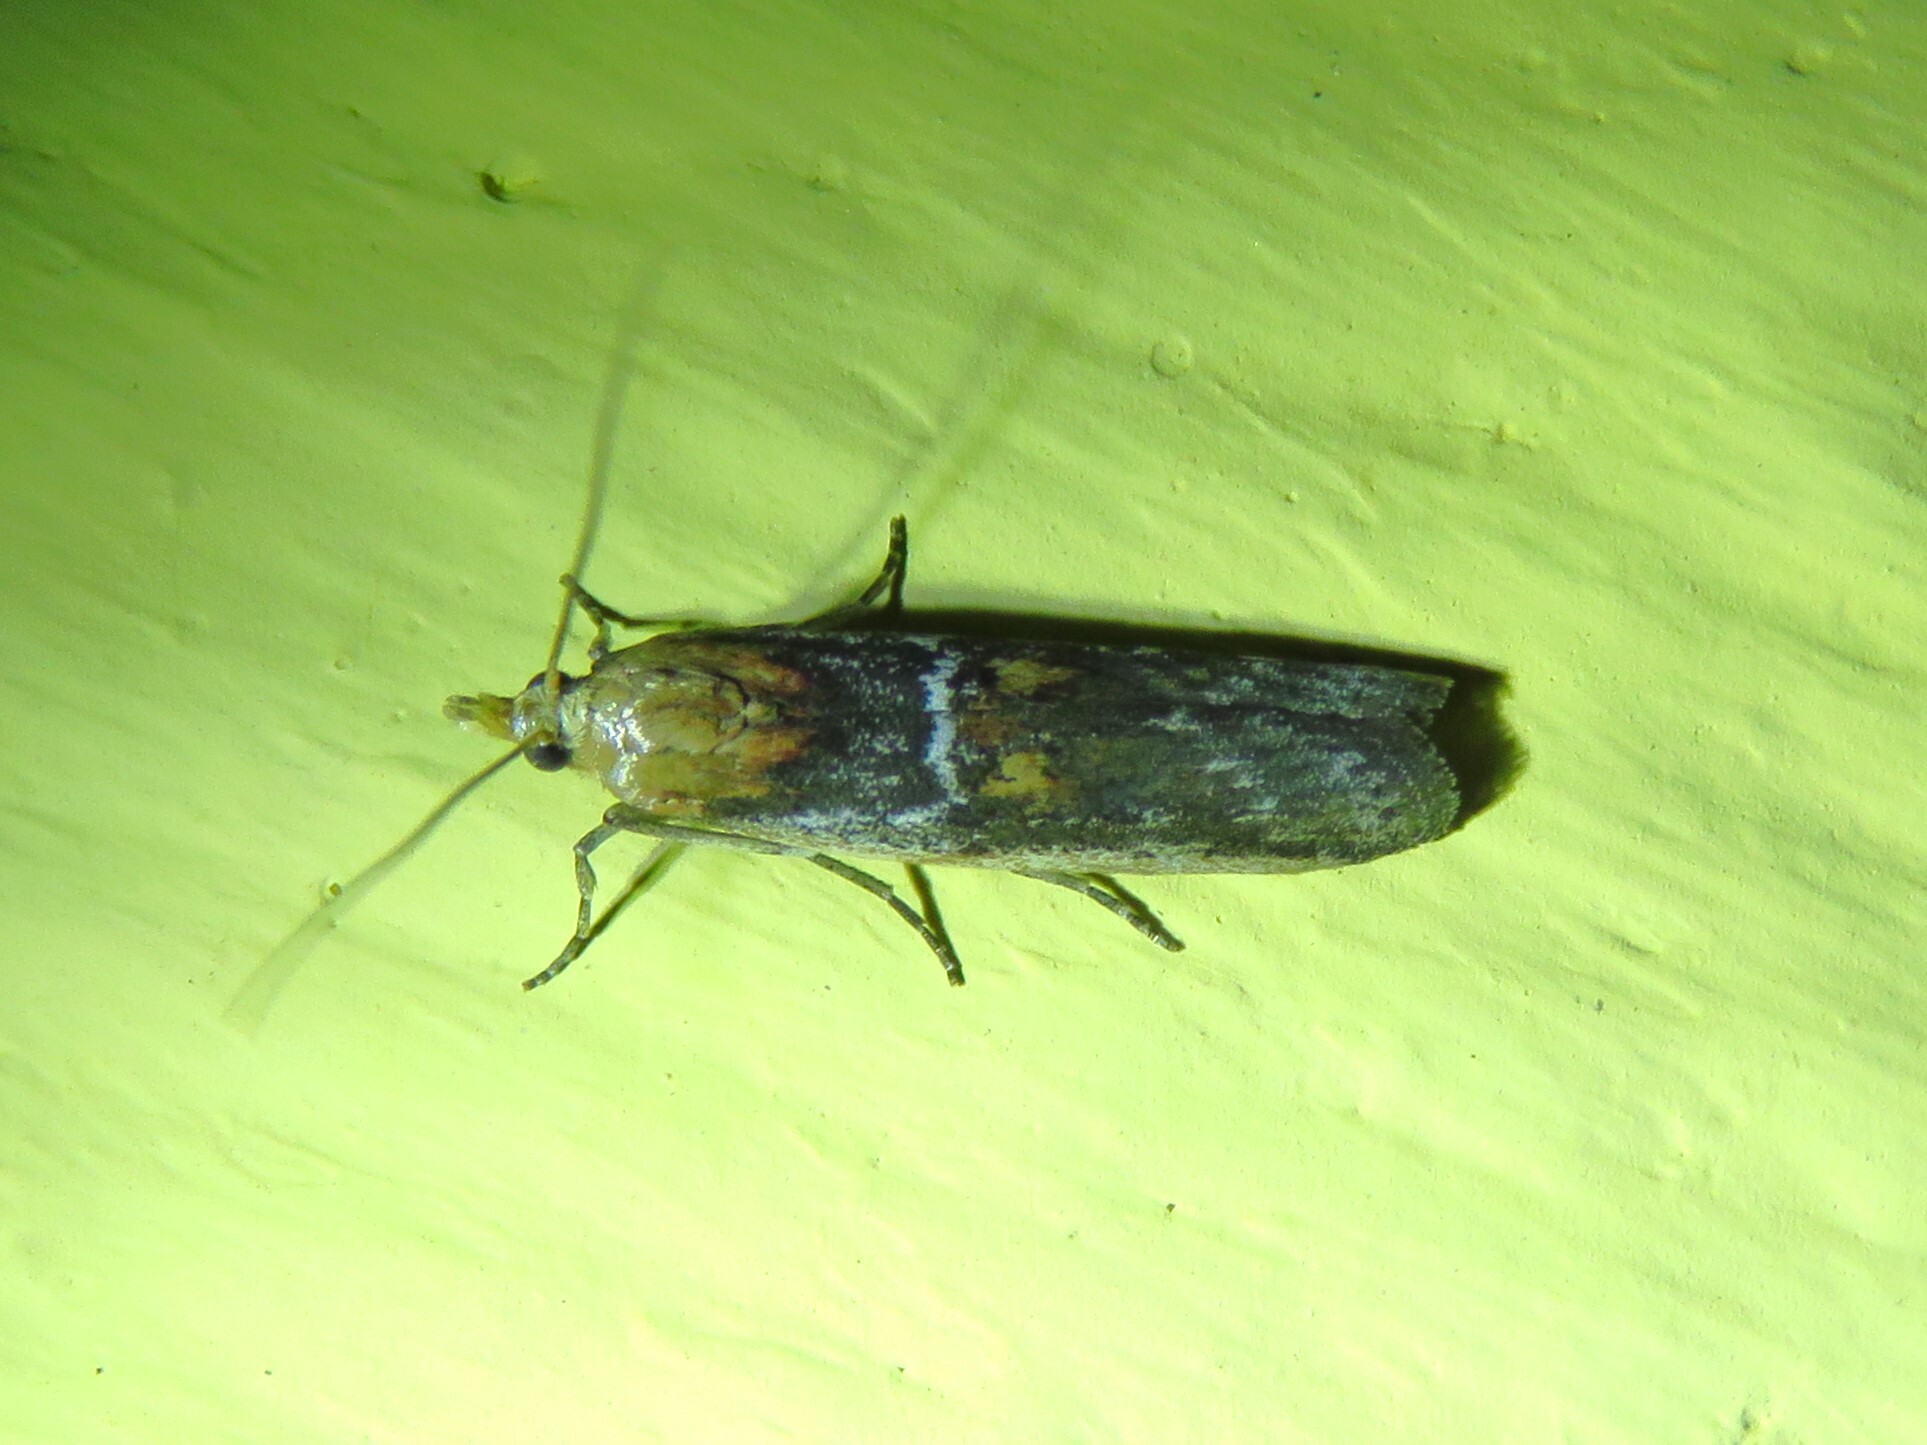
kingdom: Animalia
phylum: Arthropoda
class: Insecta
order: Lepidoptera
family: Pyralidae
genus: Honora
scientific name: Honora mellinella
